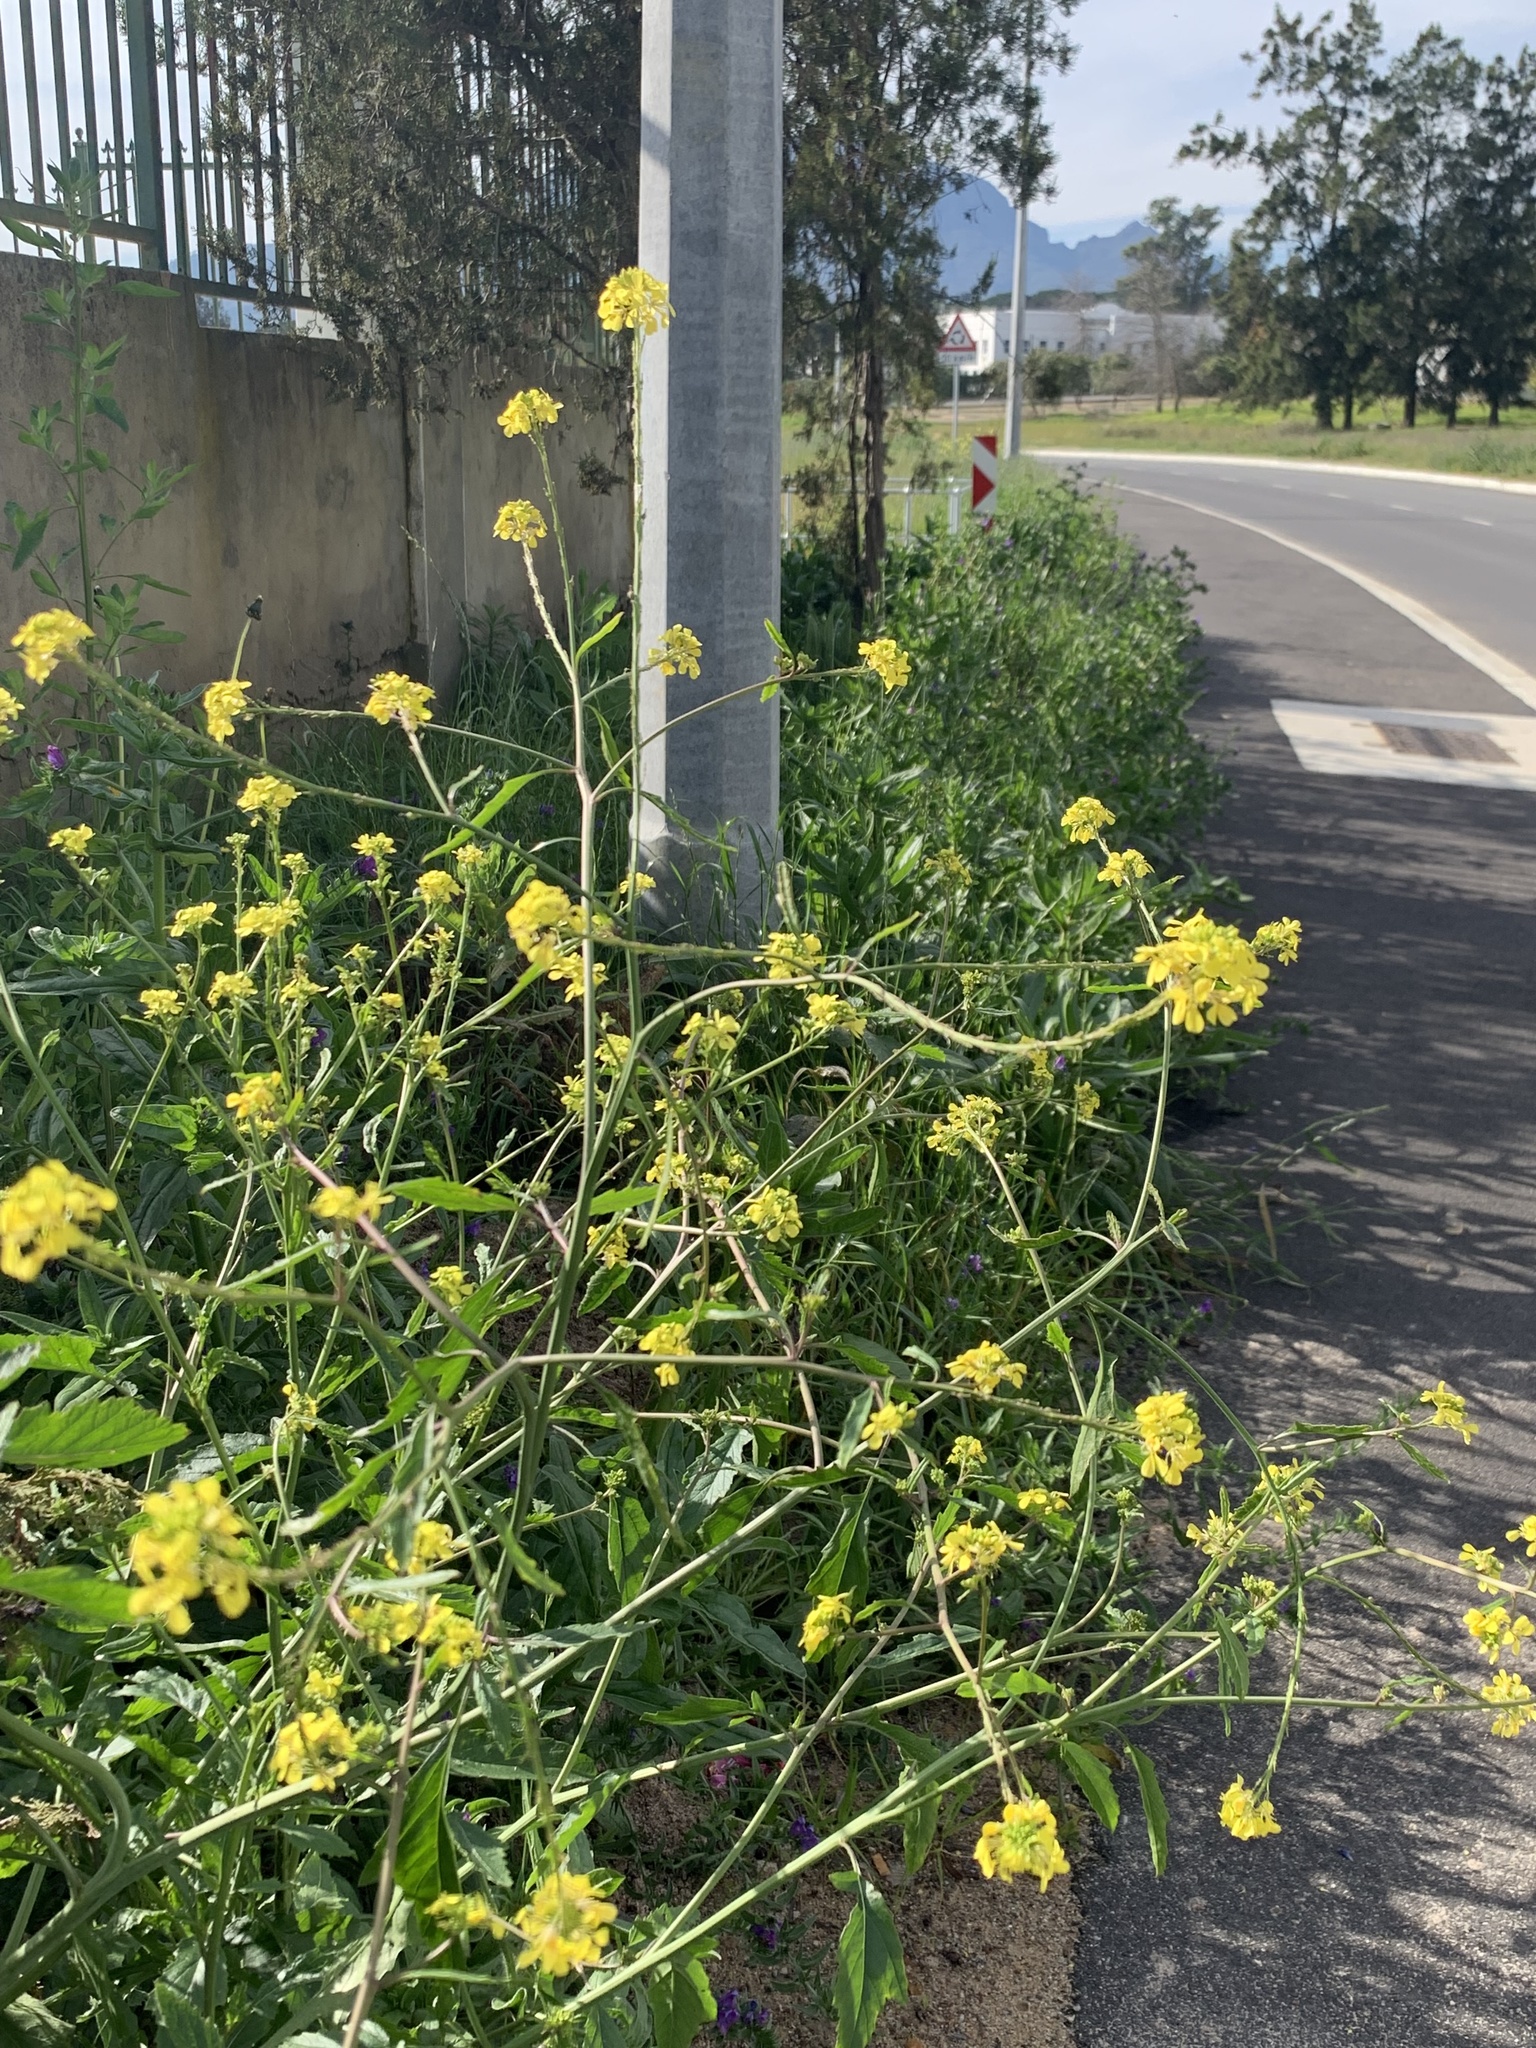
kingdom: Plantae
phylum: Tracheophyta
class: Magnoliopsida
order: Brassicales
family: Brassicaceae
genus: Rapistrum
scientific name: Rapistrum rugosum
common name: Annual bastardcabbage
